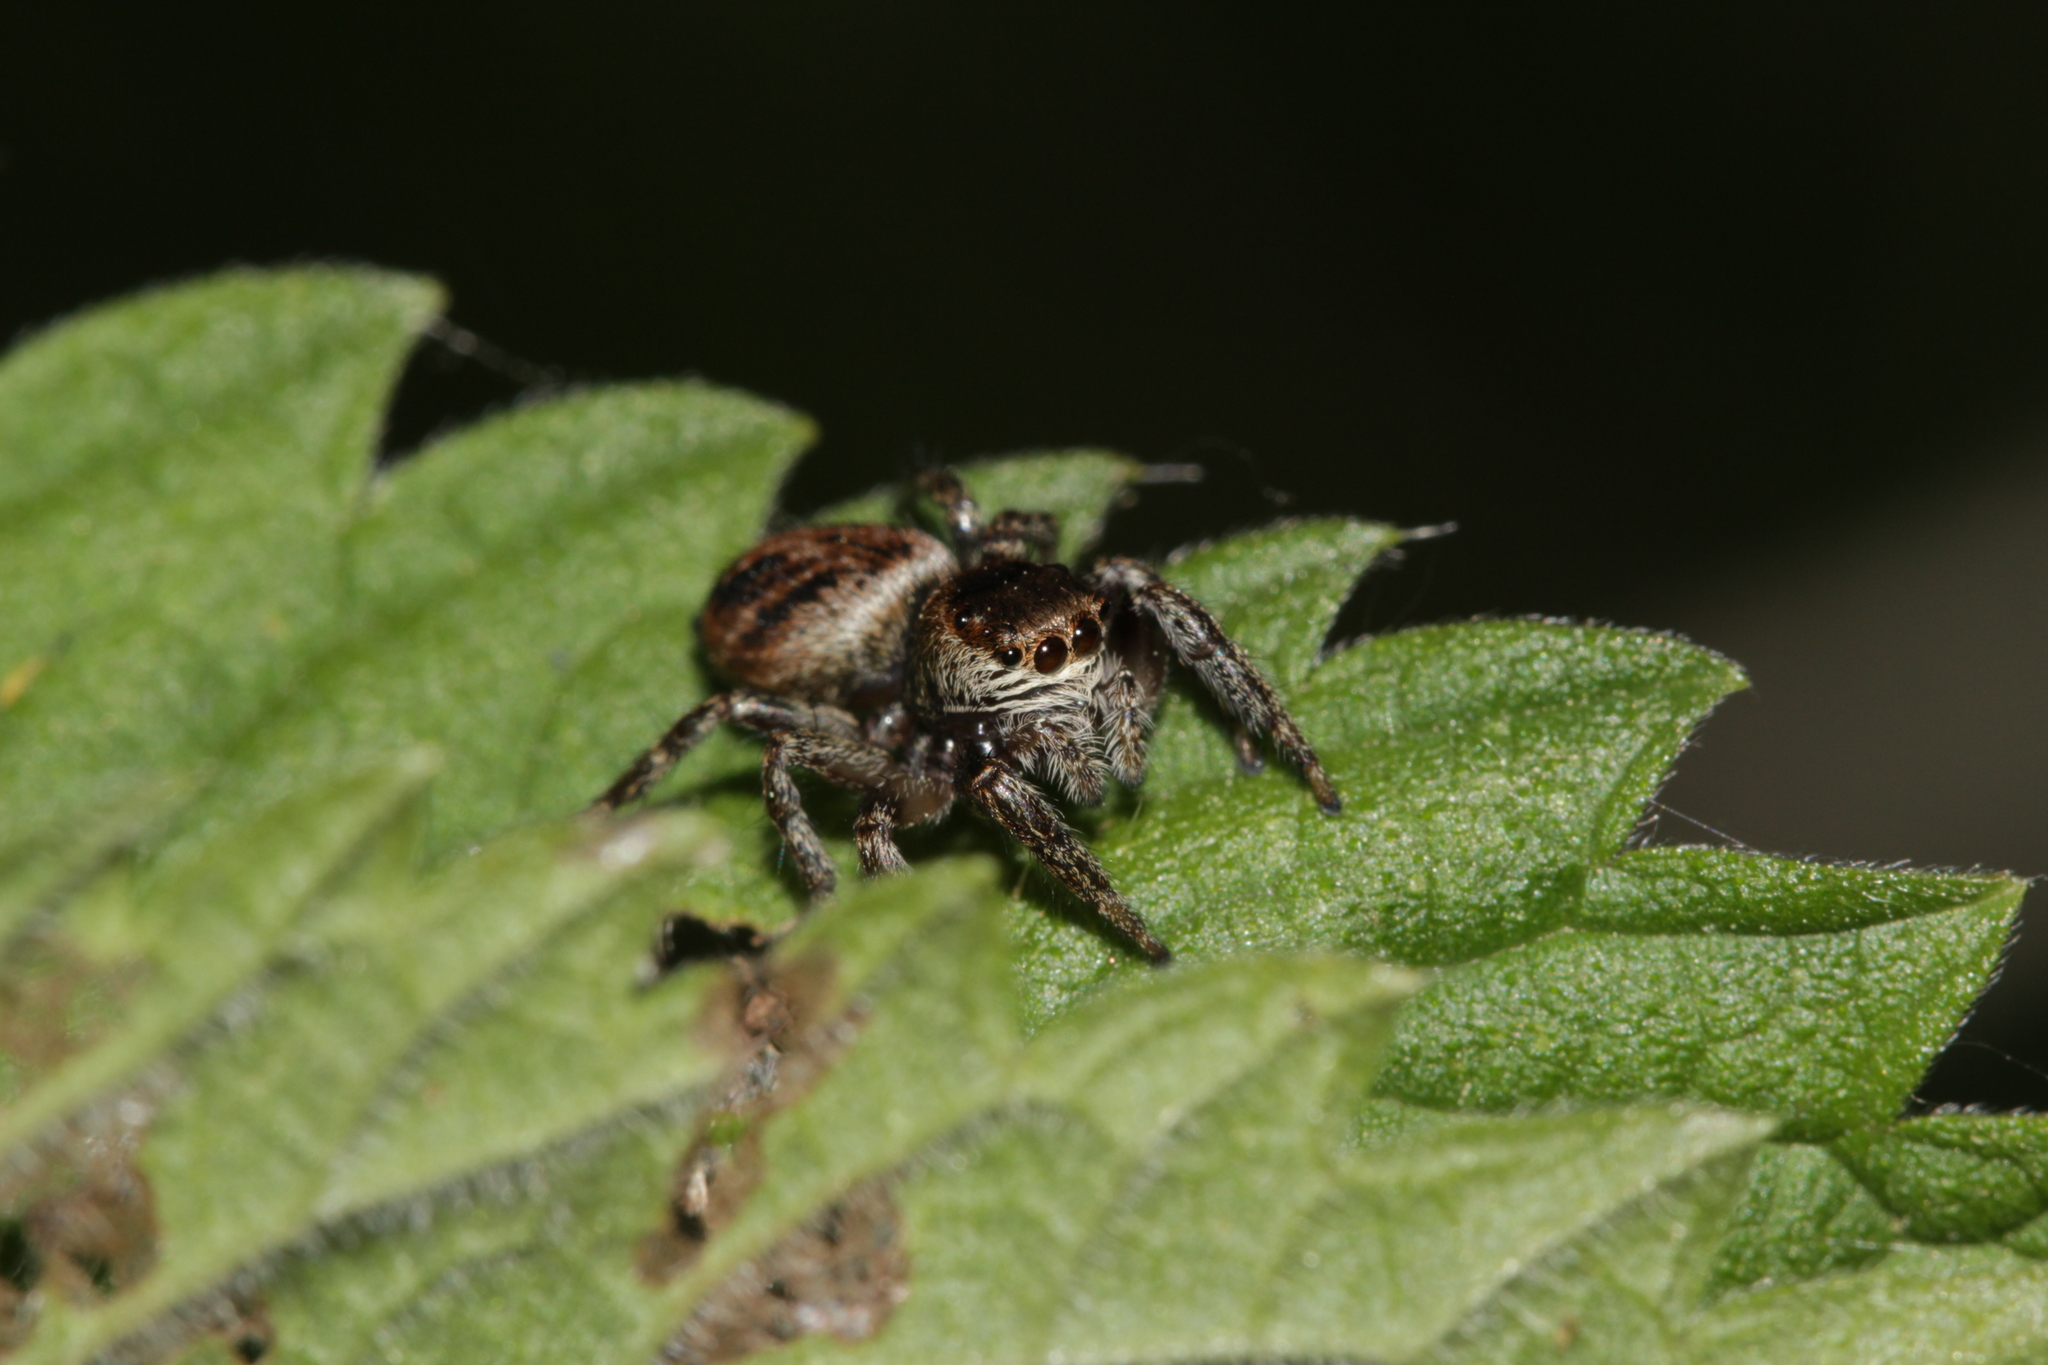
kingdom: Animalia
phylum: Arthropoda
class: Arachnida
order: Araneae
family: Salticidae
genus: Evarcha
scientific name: Evarcha arcuata
